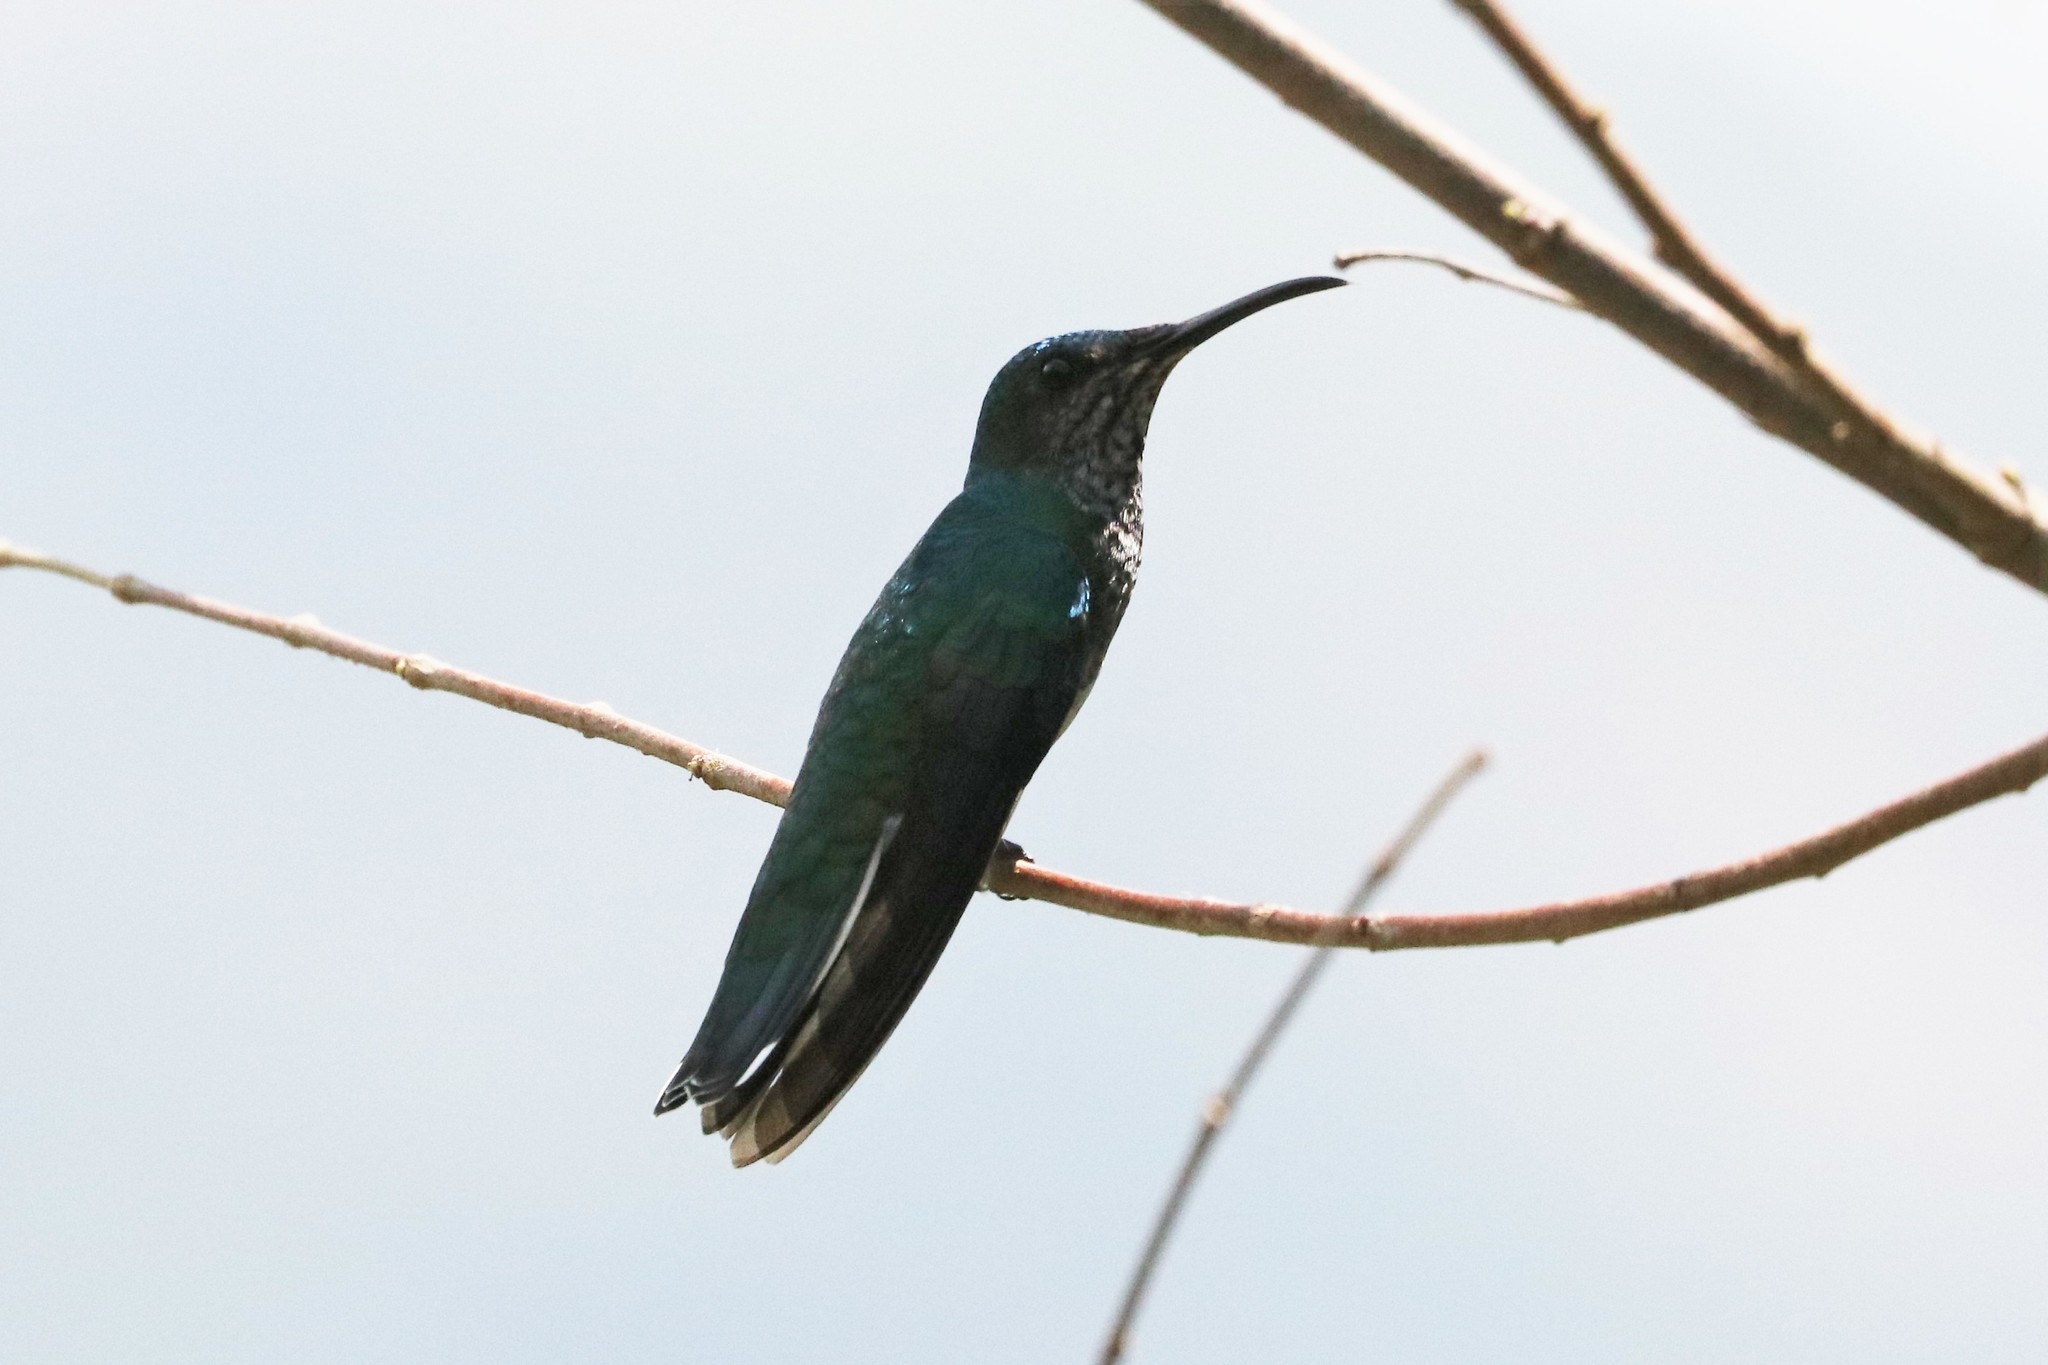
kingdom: Animalia
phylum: Chordata
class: Aves
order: Apodiformes
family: Trochilidae
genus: Florisuga
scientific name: Florisuga mellivora
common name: White-necked jacobin
